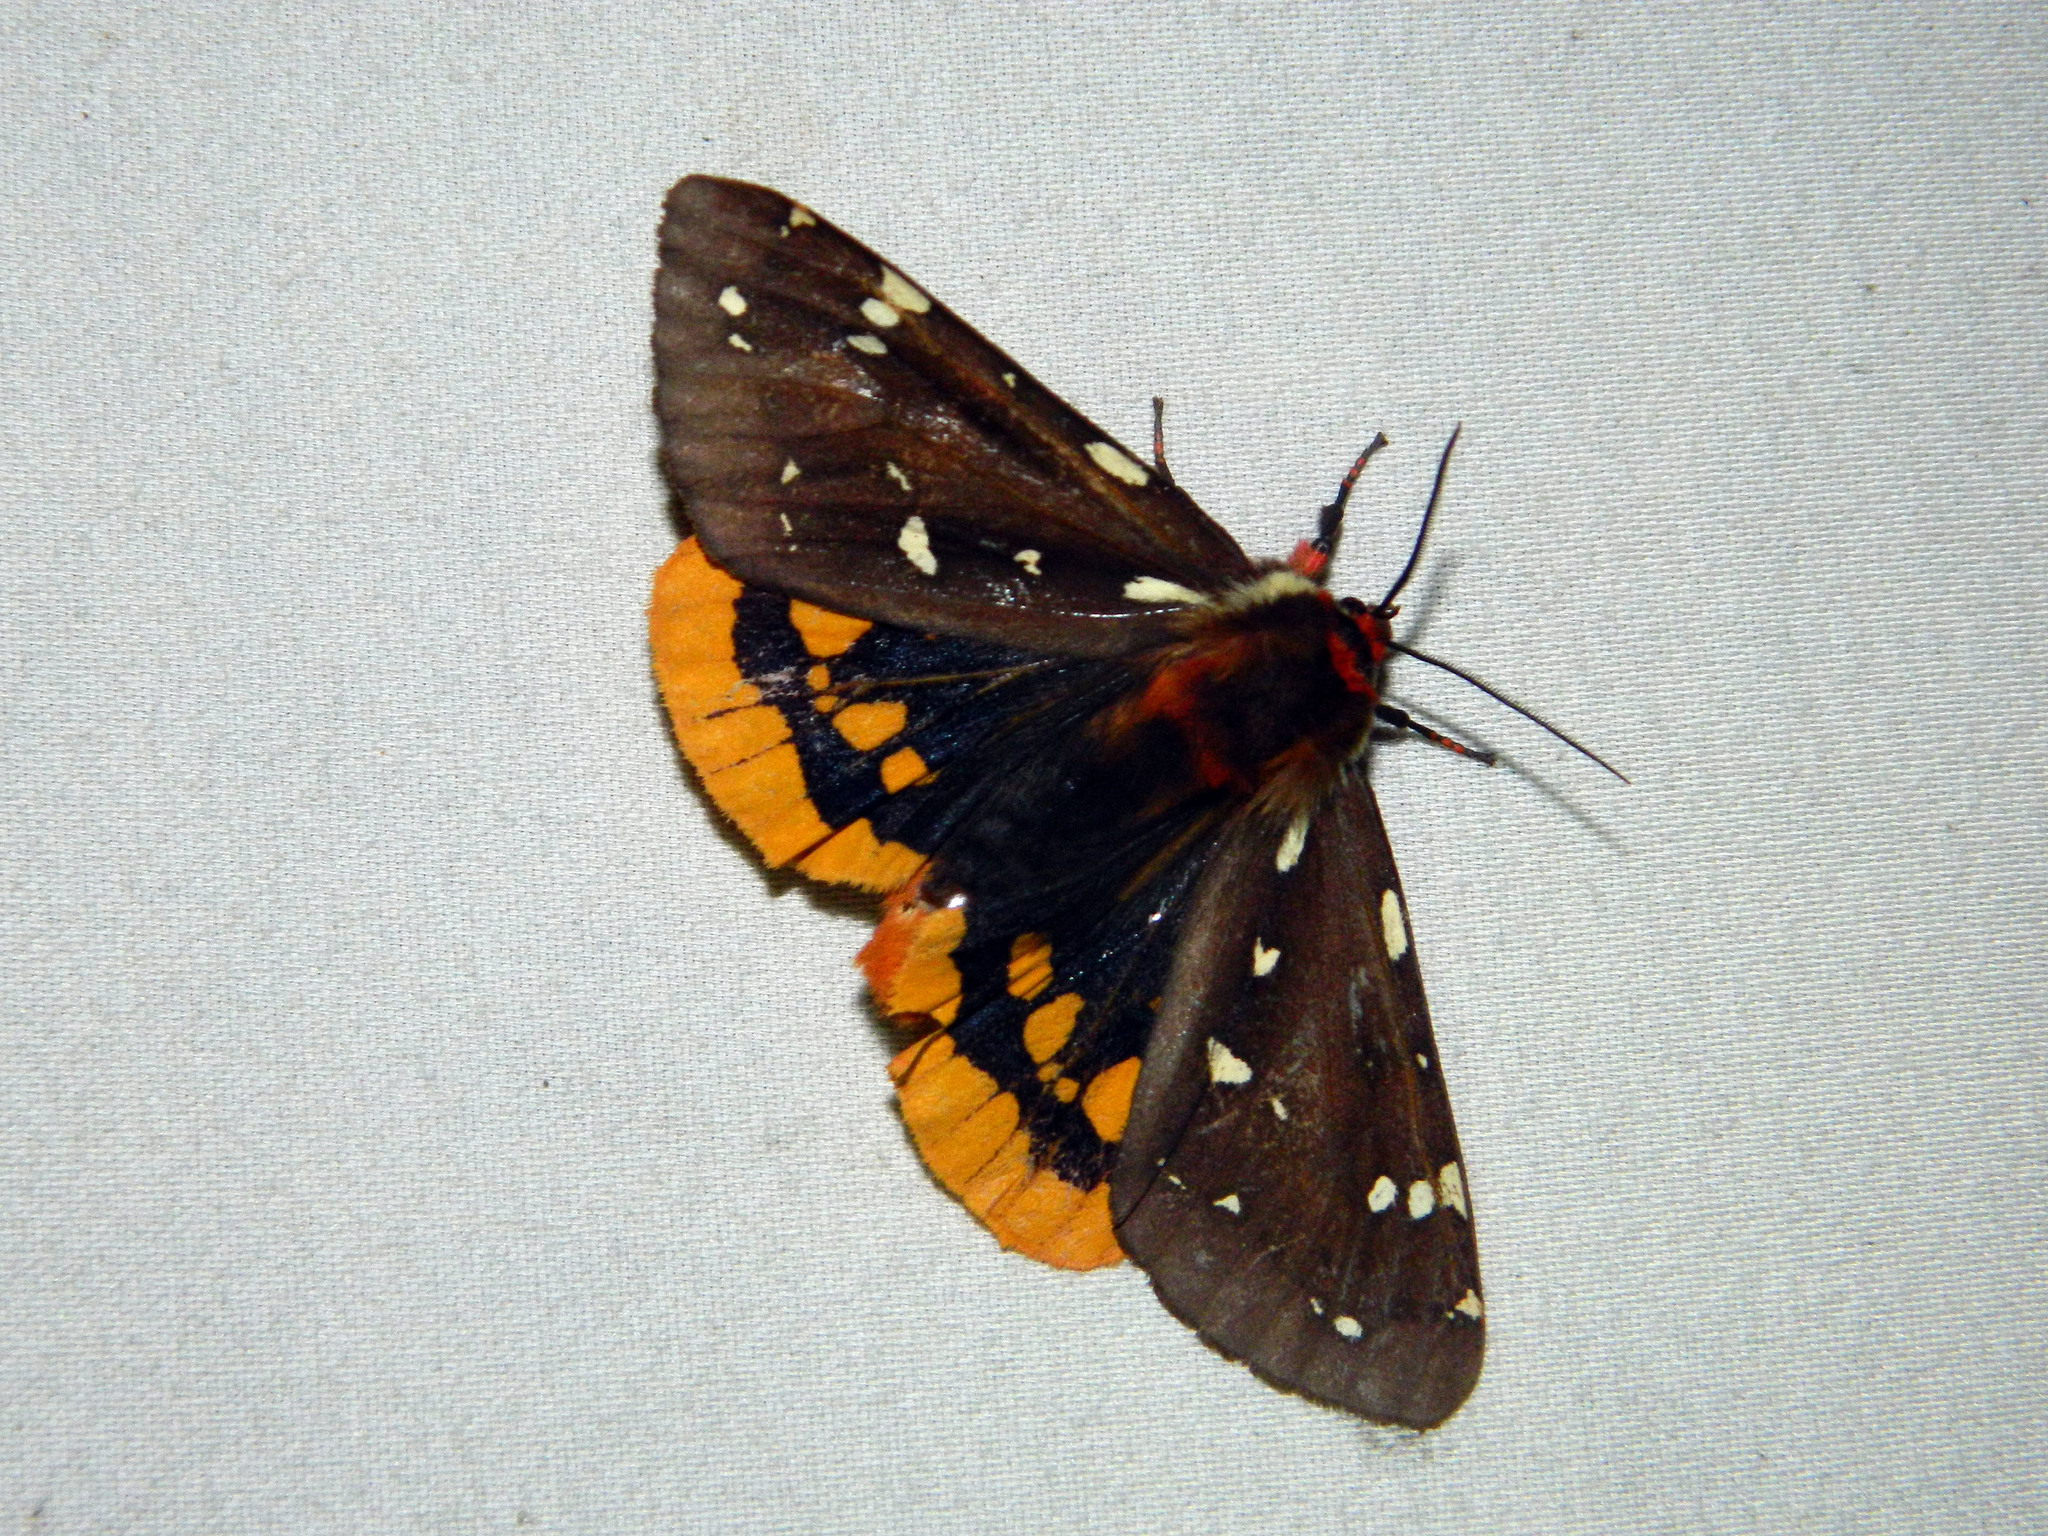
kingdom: Animalia
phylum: Arthropoda
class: Insecta
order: Lepidoptera
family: Erebidae
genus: Arctia
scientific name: Arctia parthenos
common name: St. lawrence tiger moth
